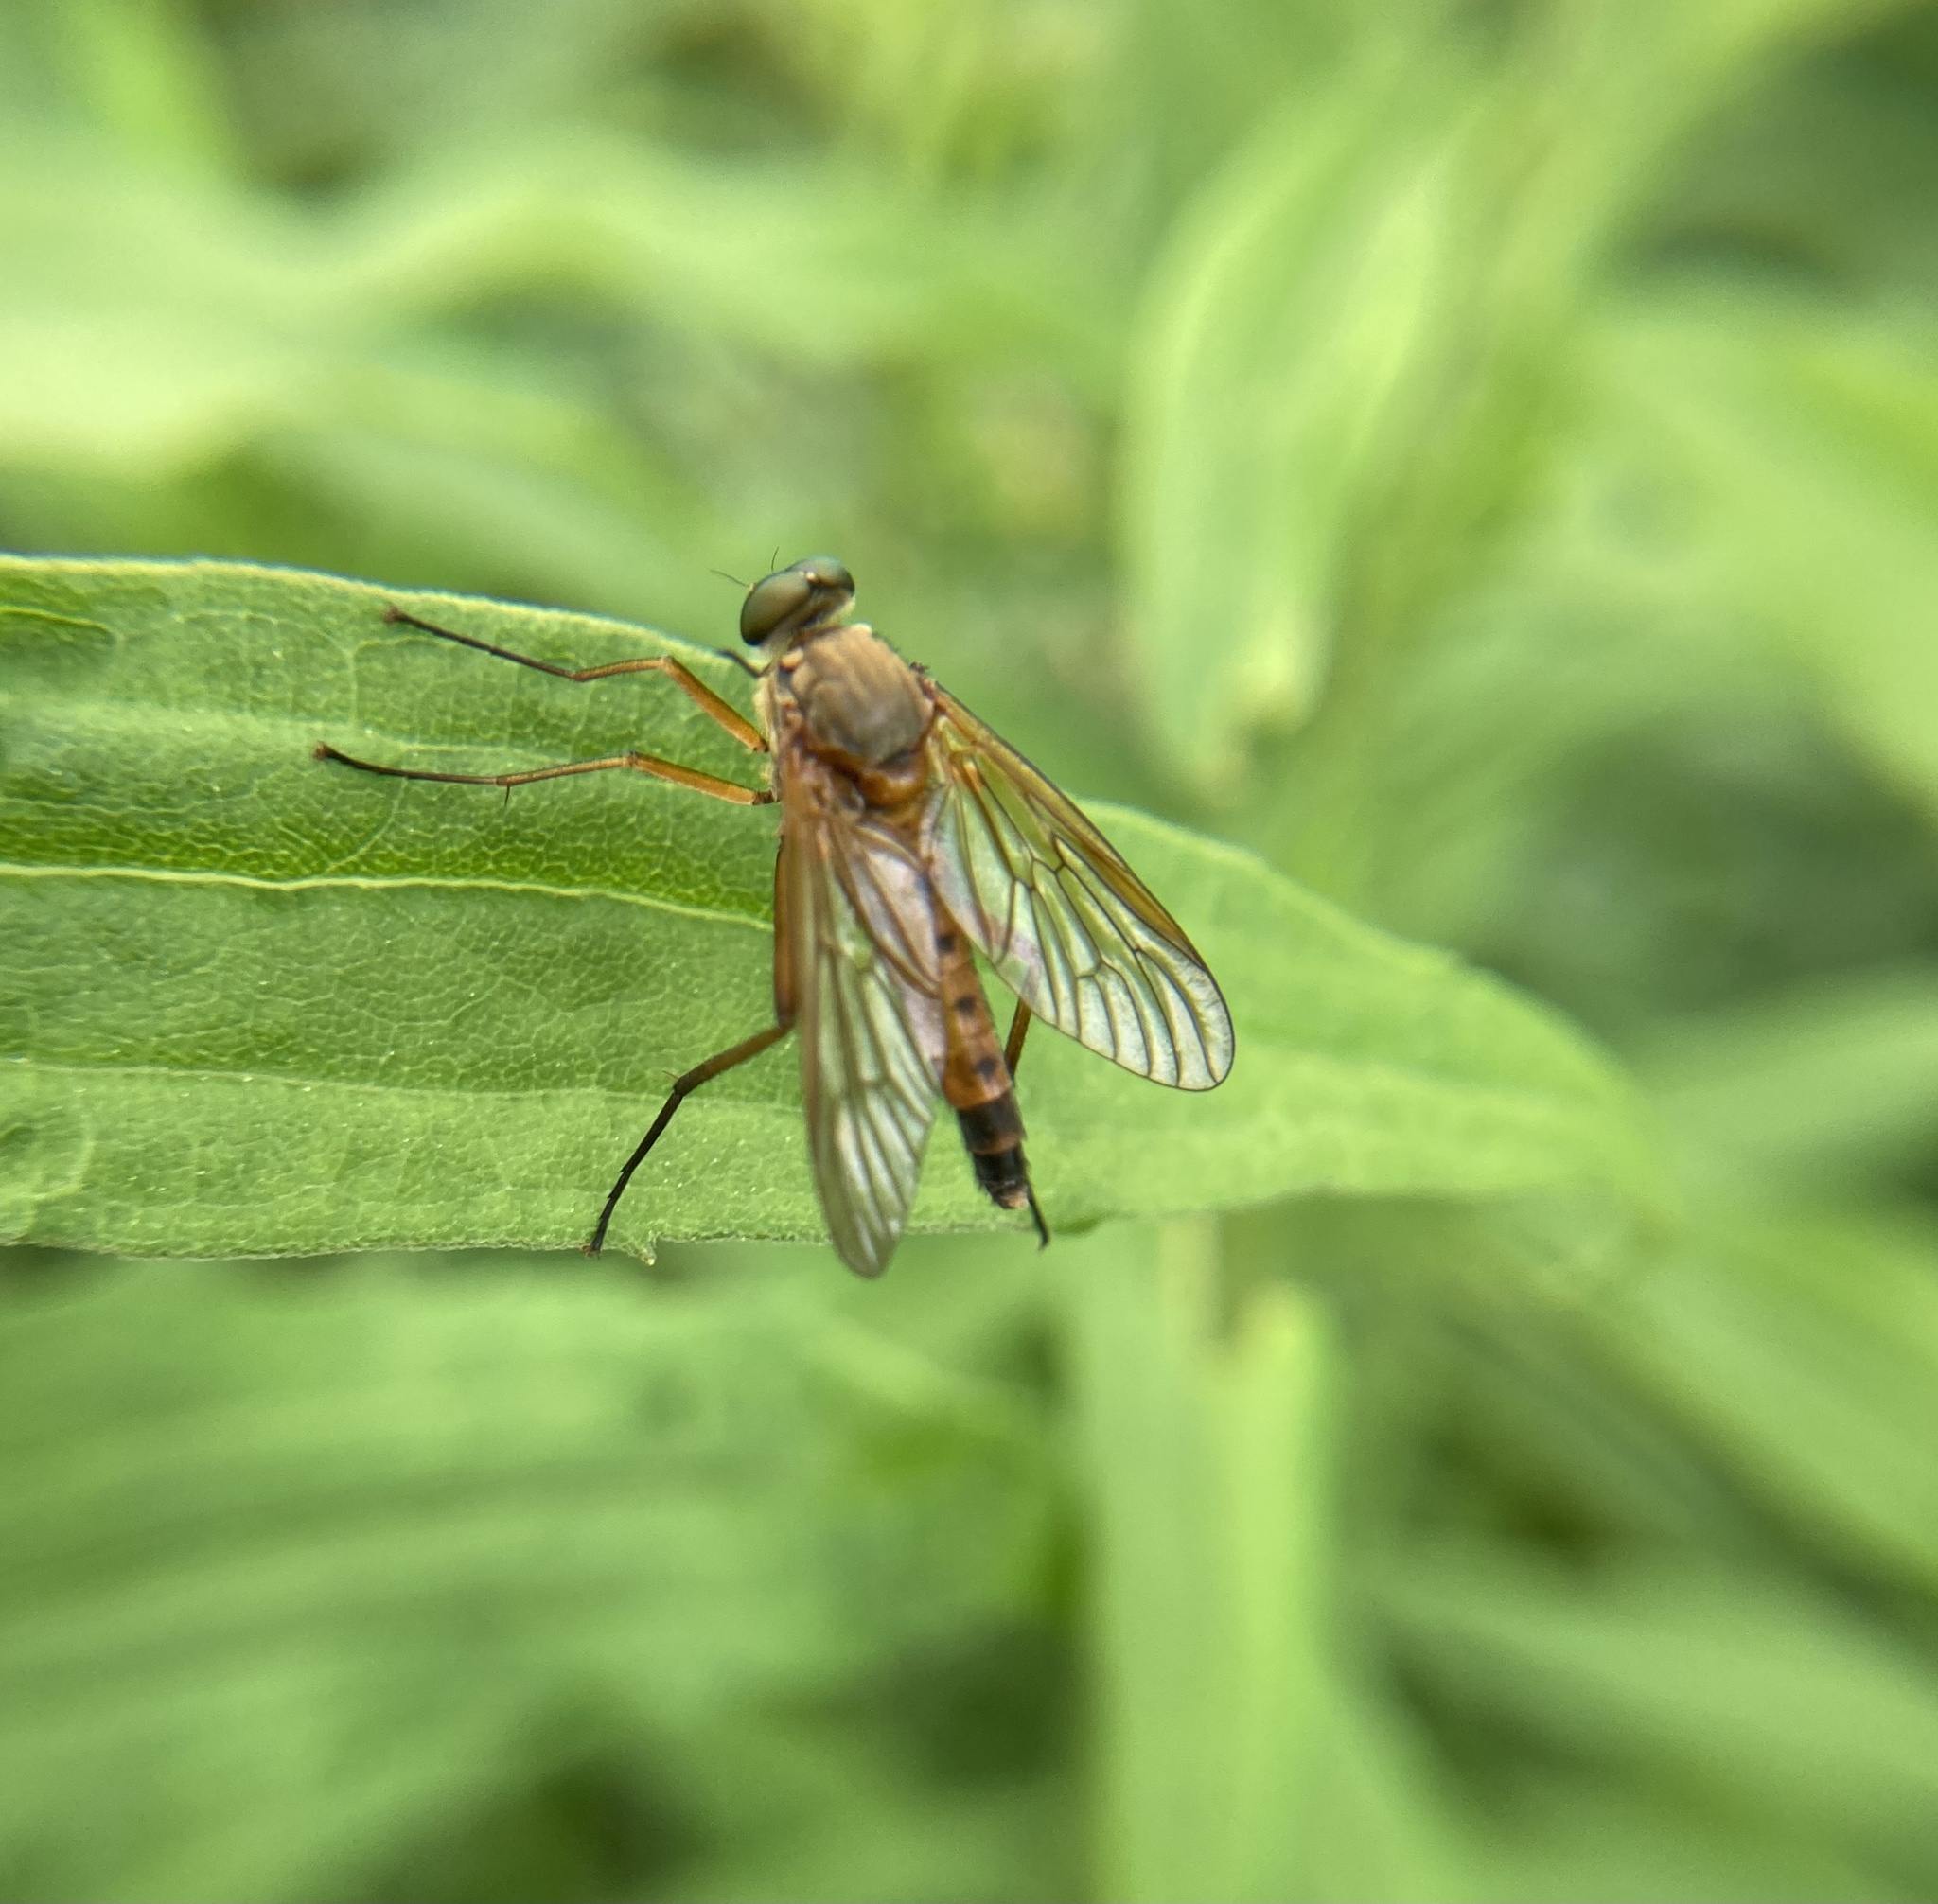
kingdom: Animalia
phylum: Arthropoda
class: Insecta
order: Diptera
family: Rhagionidae
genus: Rhagio
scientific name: Rhagio tringaria
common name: Marsh snipefly
